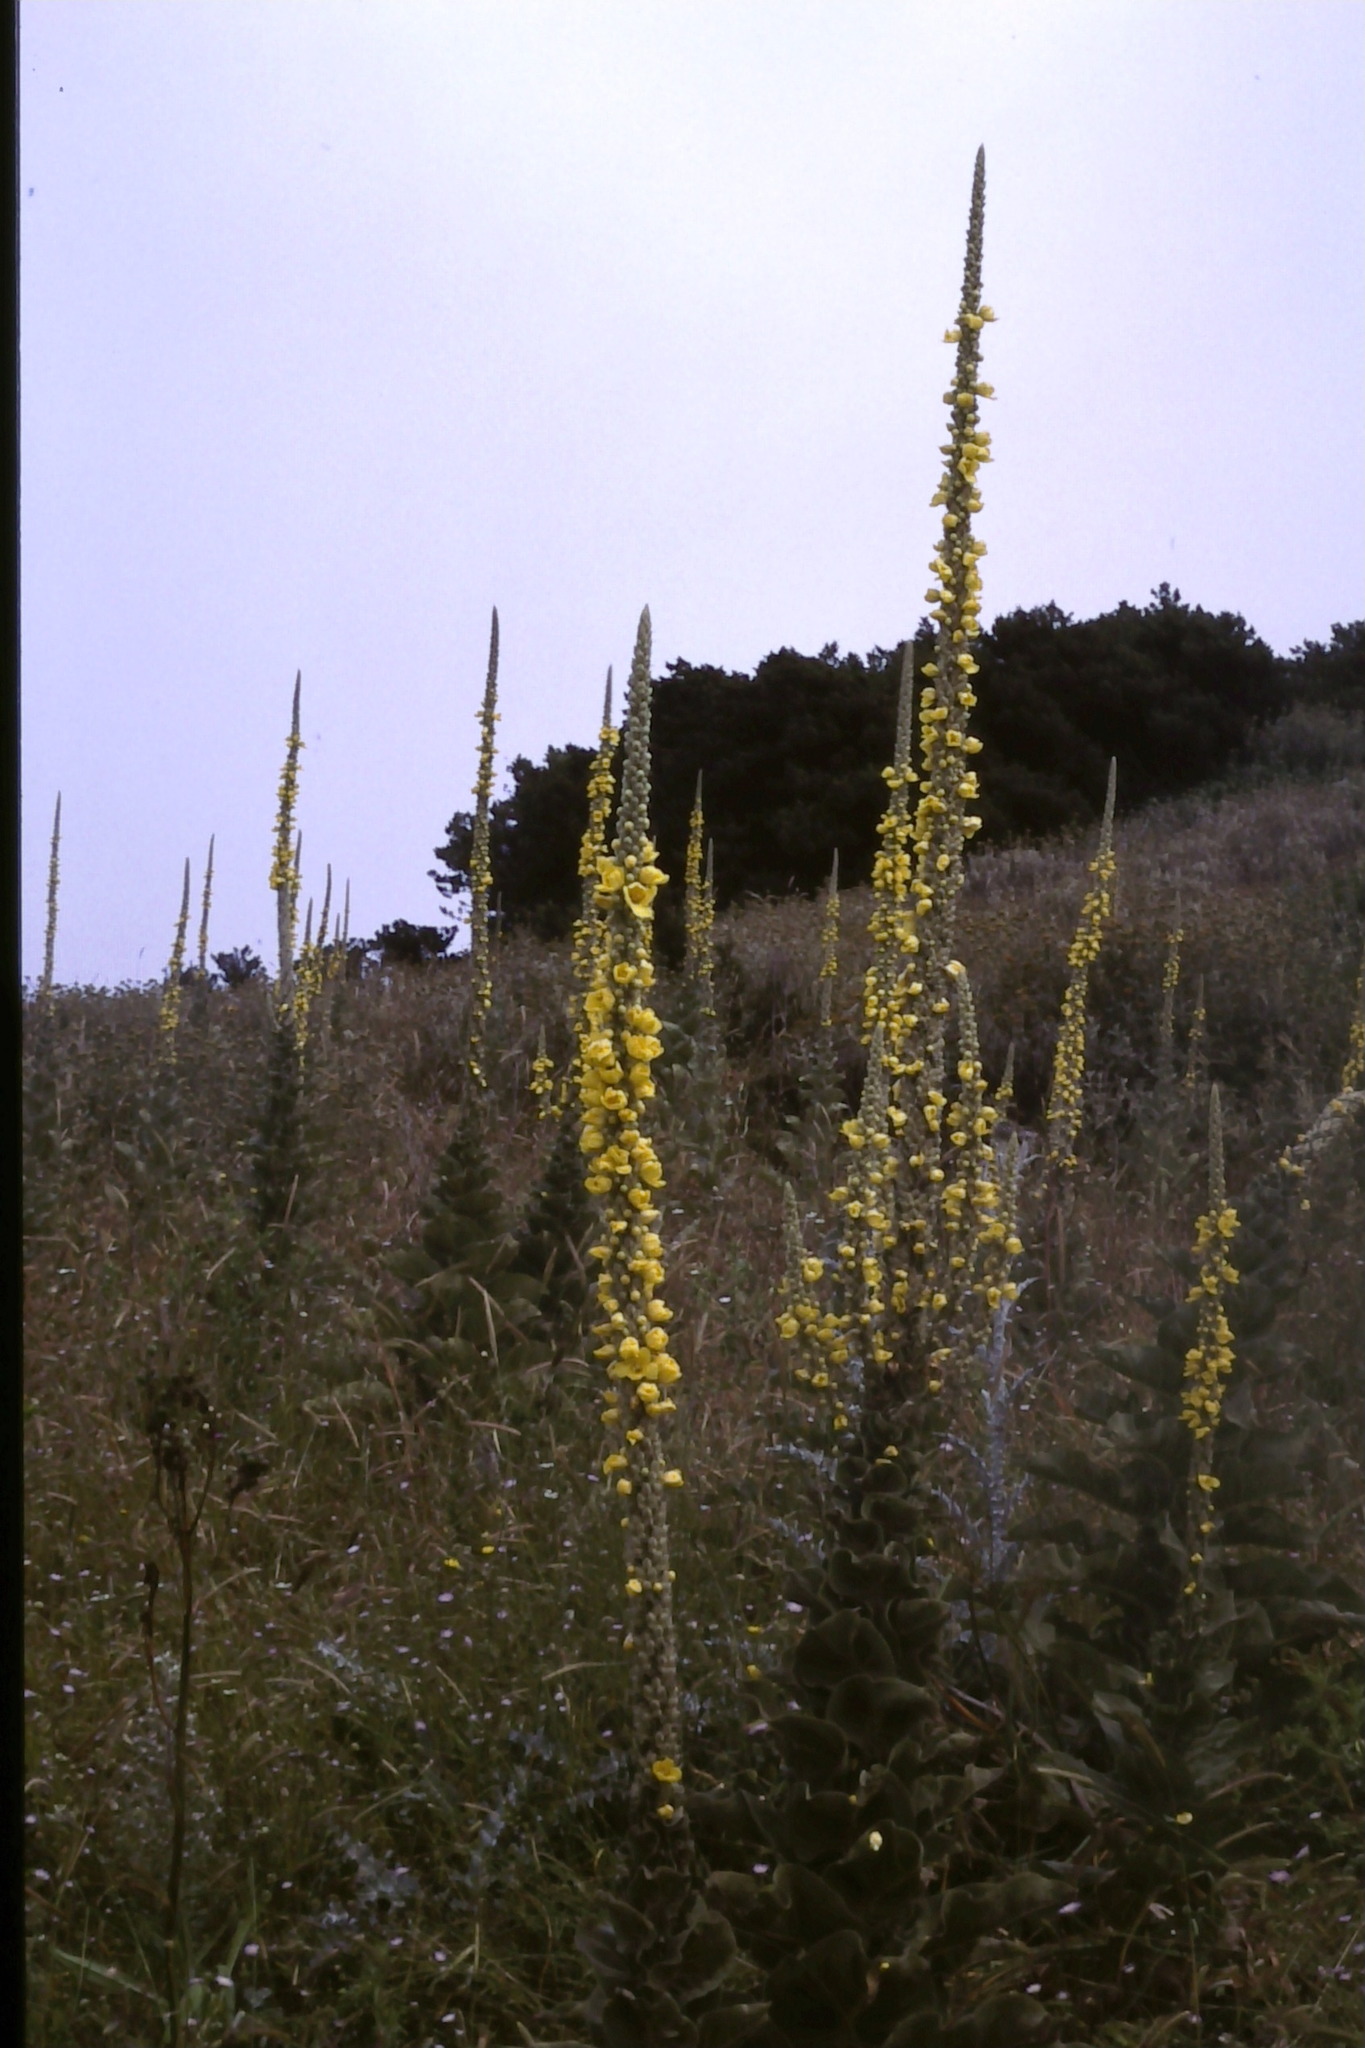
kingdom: Plantae
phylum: Tracheophyta
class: Magnoliopsida
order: Lamiales
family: Scrophulariaceae
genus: Verbascum
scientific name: Verbascum macrurum
